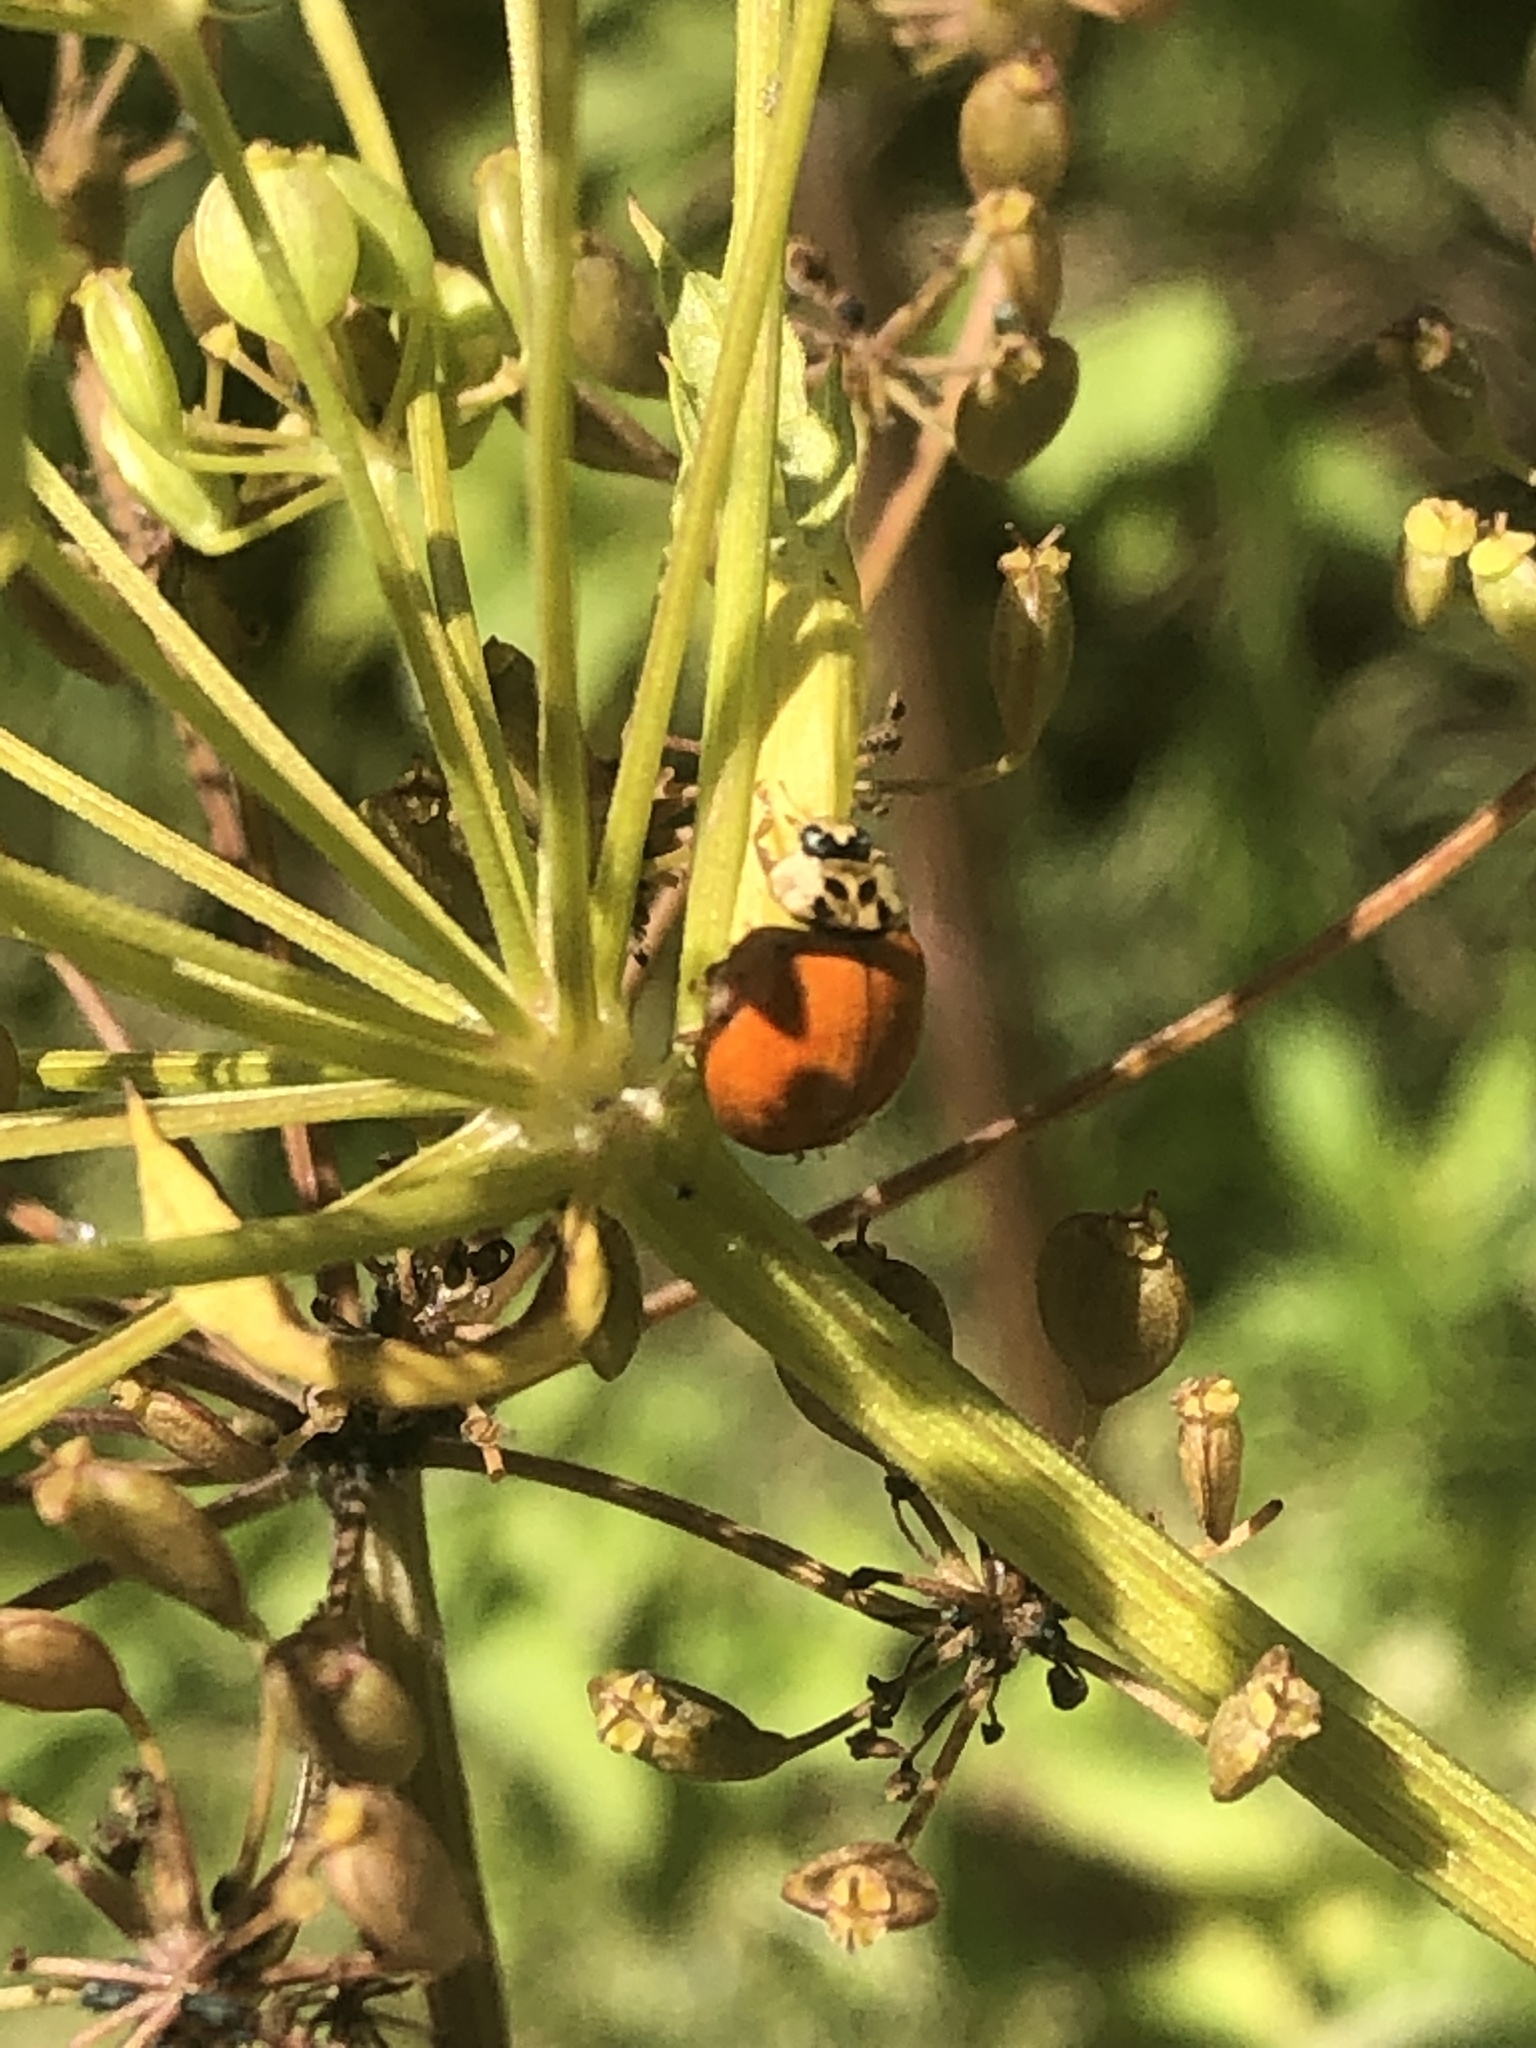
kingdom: Animalia
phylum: Arthropoda
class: Insecta
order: Coleoptera
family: Coccinellidae
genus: Harmonia
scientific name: Harmonia axyridis
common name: Harlequin ladybird
